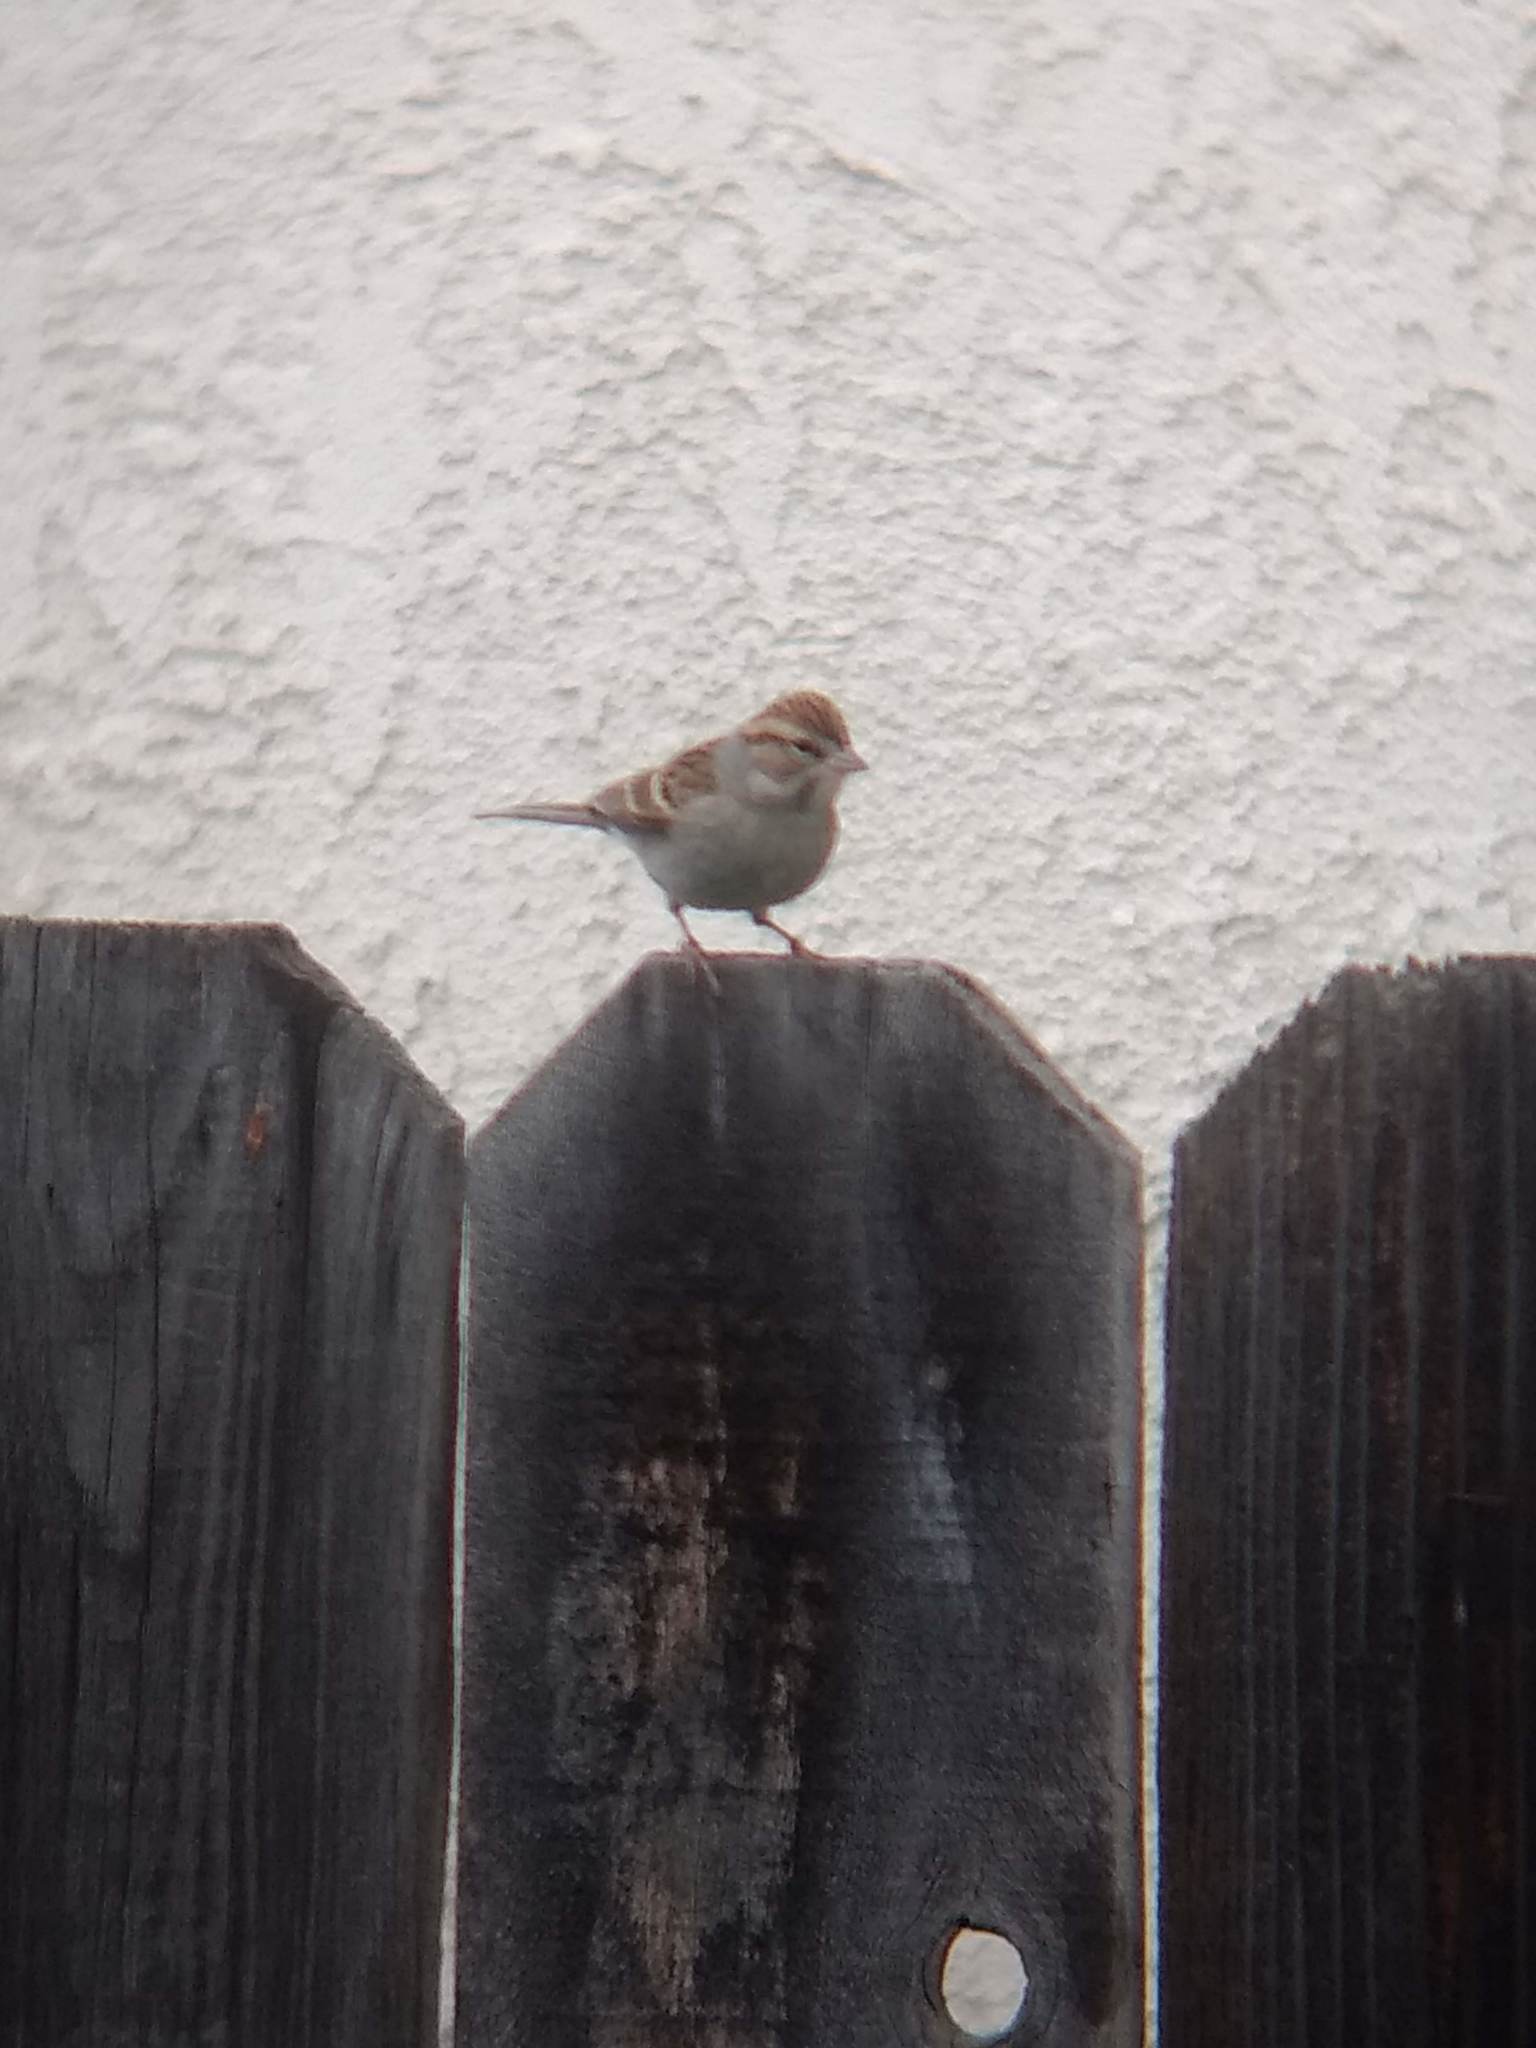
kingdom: Animalia
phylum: Chordata
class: Aves
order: Passeriformes
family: Passerellidae
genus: Zonotrichia
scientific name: Zonotrichia leucophrys
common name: White-crowned sparrow
